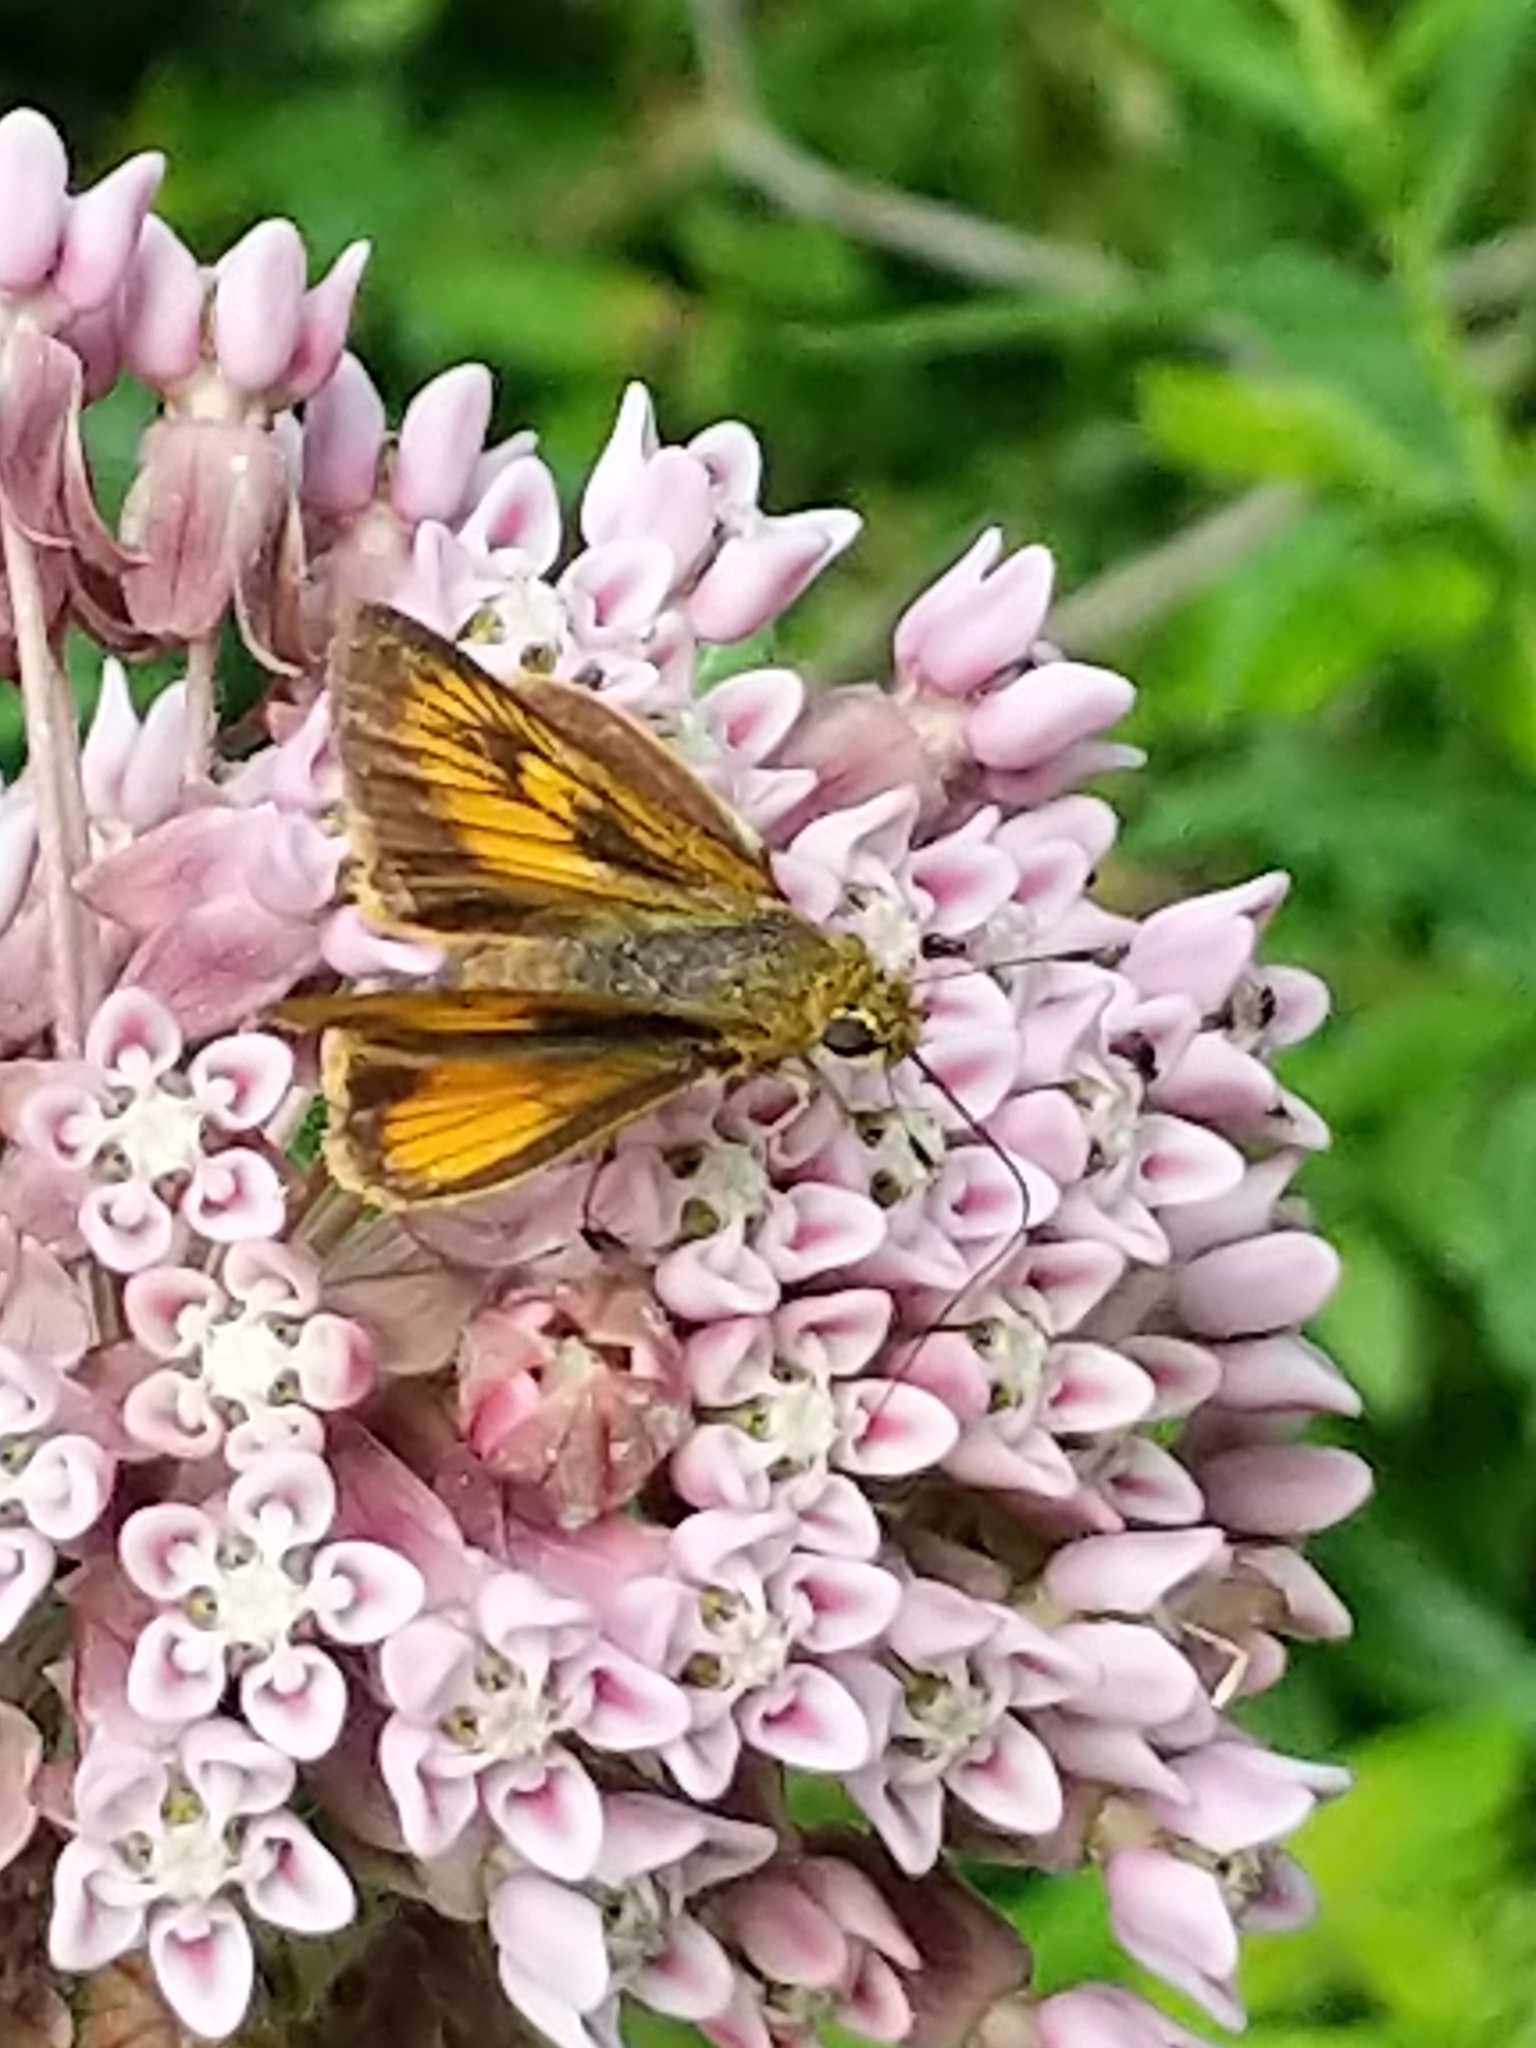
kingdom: Animalia
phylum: Arthropoda
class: Insecta
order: Lepidoptera
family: Hesperiidae
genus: Atrytone
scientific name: Atrytone delaware
